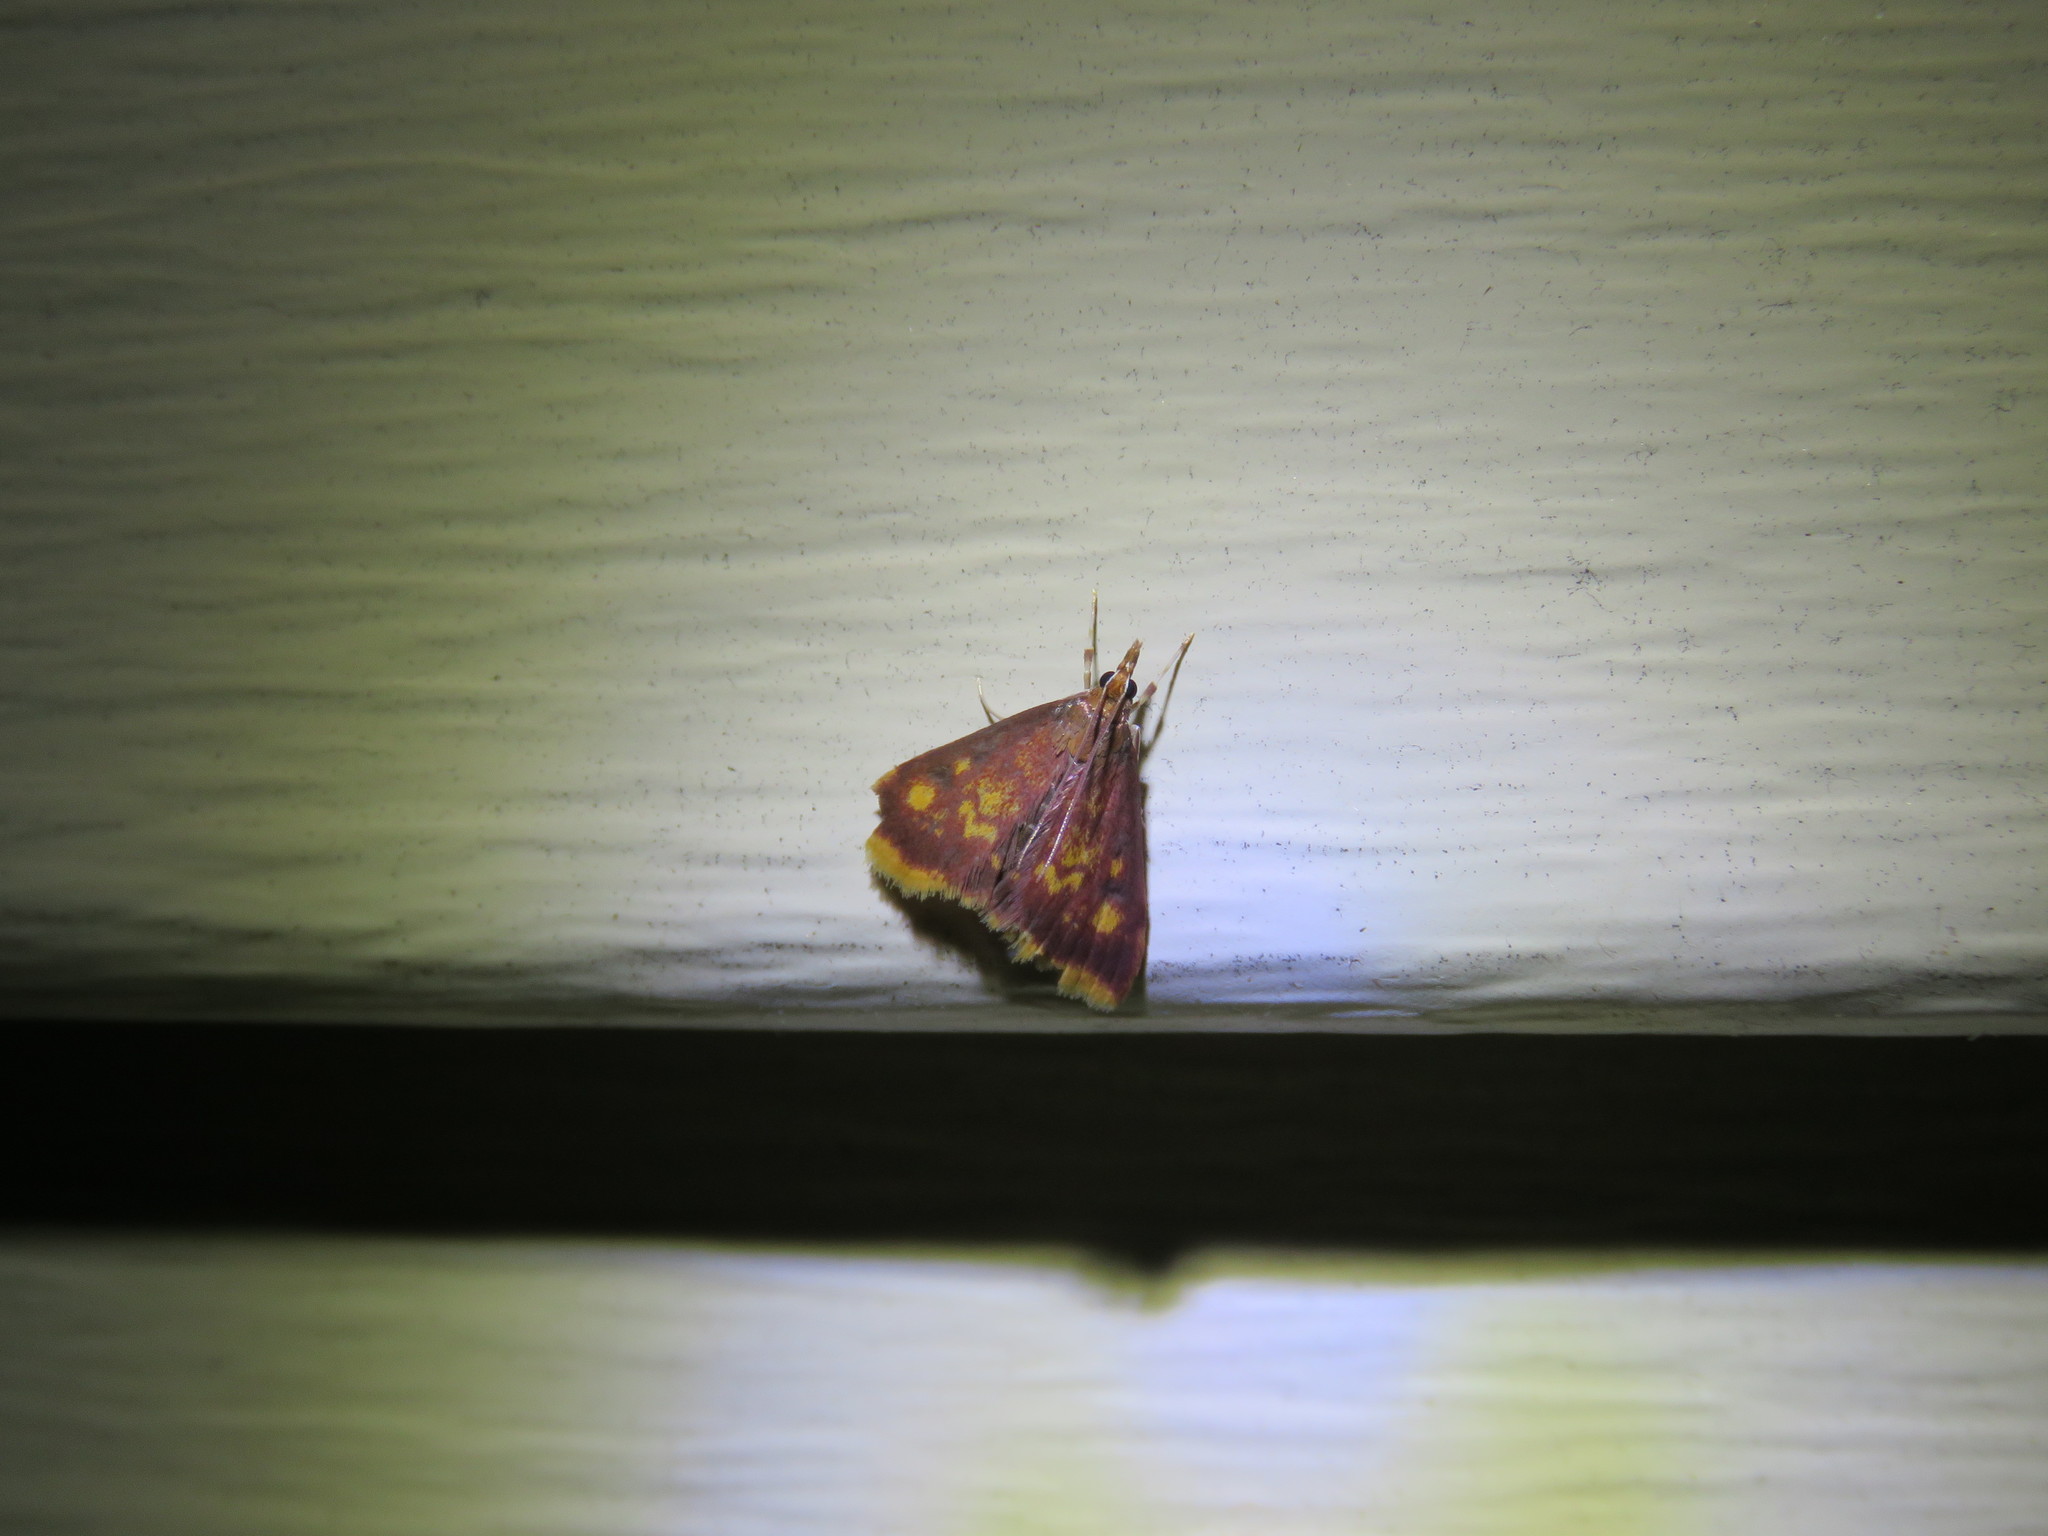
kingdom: Animalia
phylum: Arthropoda
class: Insecta
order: Lepidoptera
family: Crambidae
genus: Pyrausta
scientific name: Pyrausta acrionalis
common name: Mint-loving pyrausta moth
